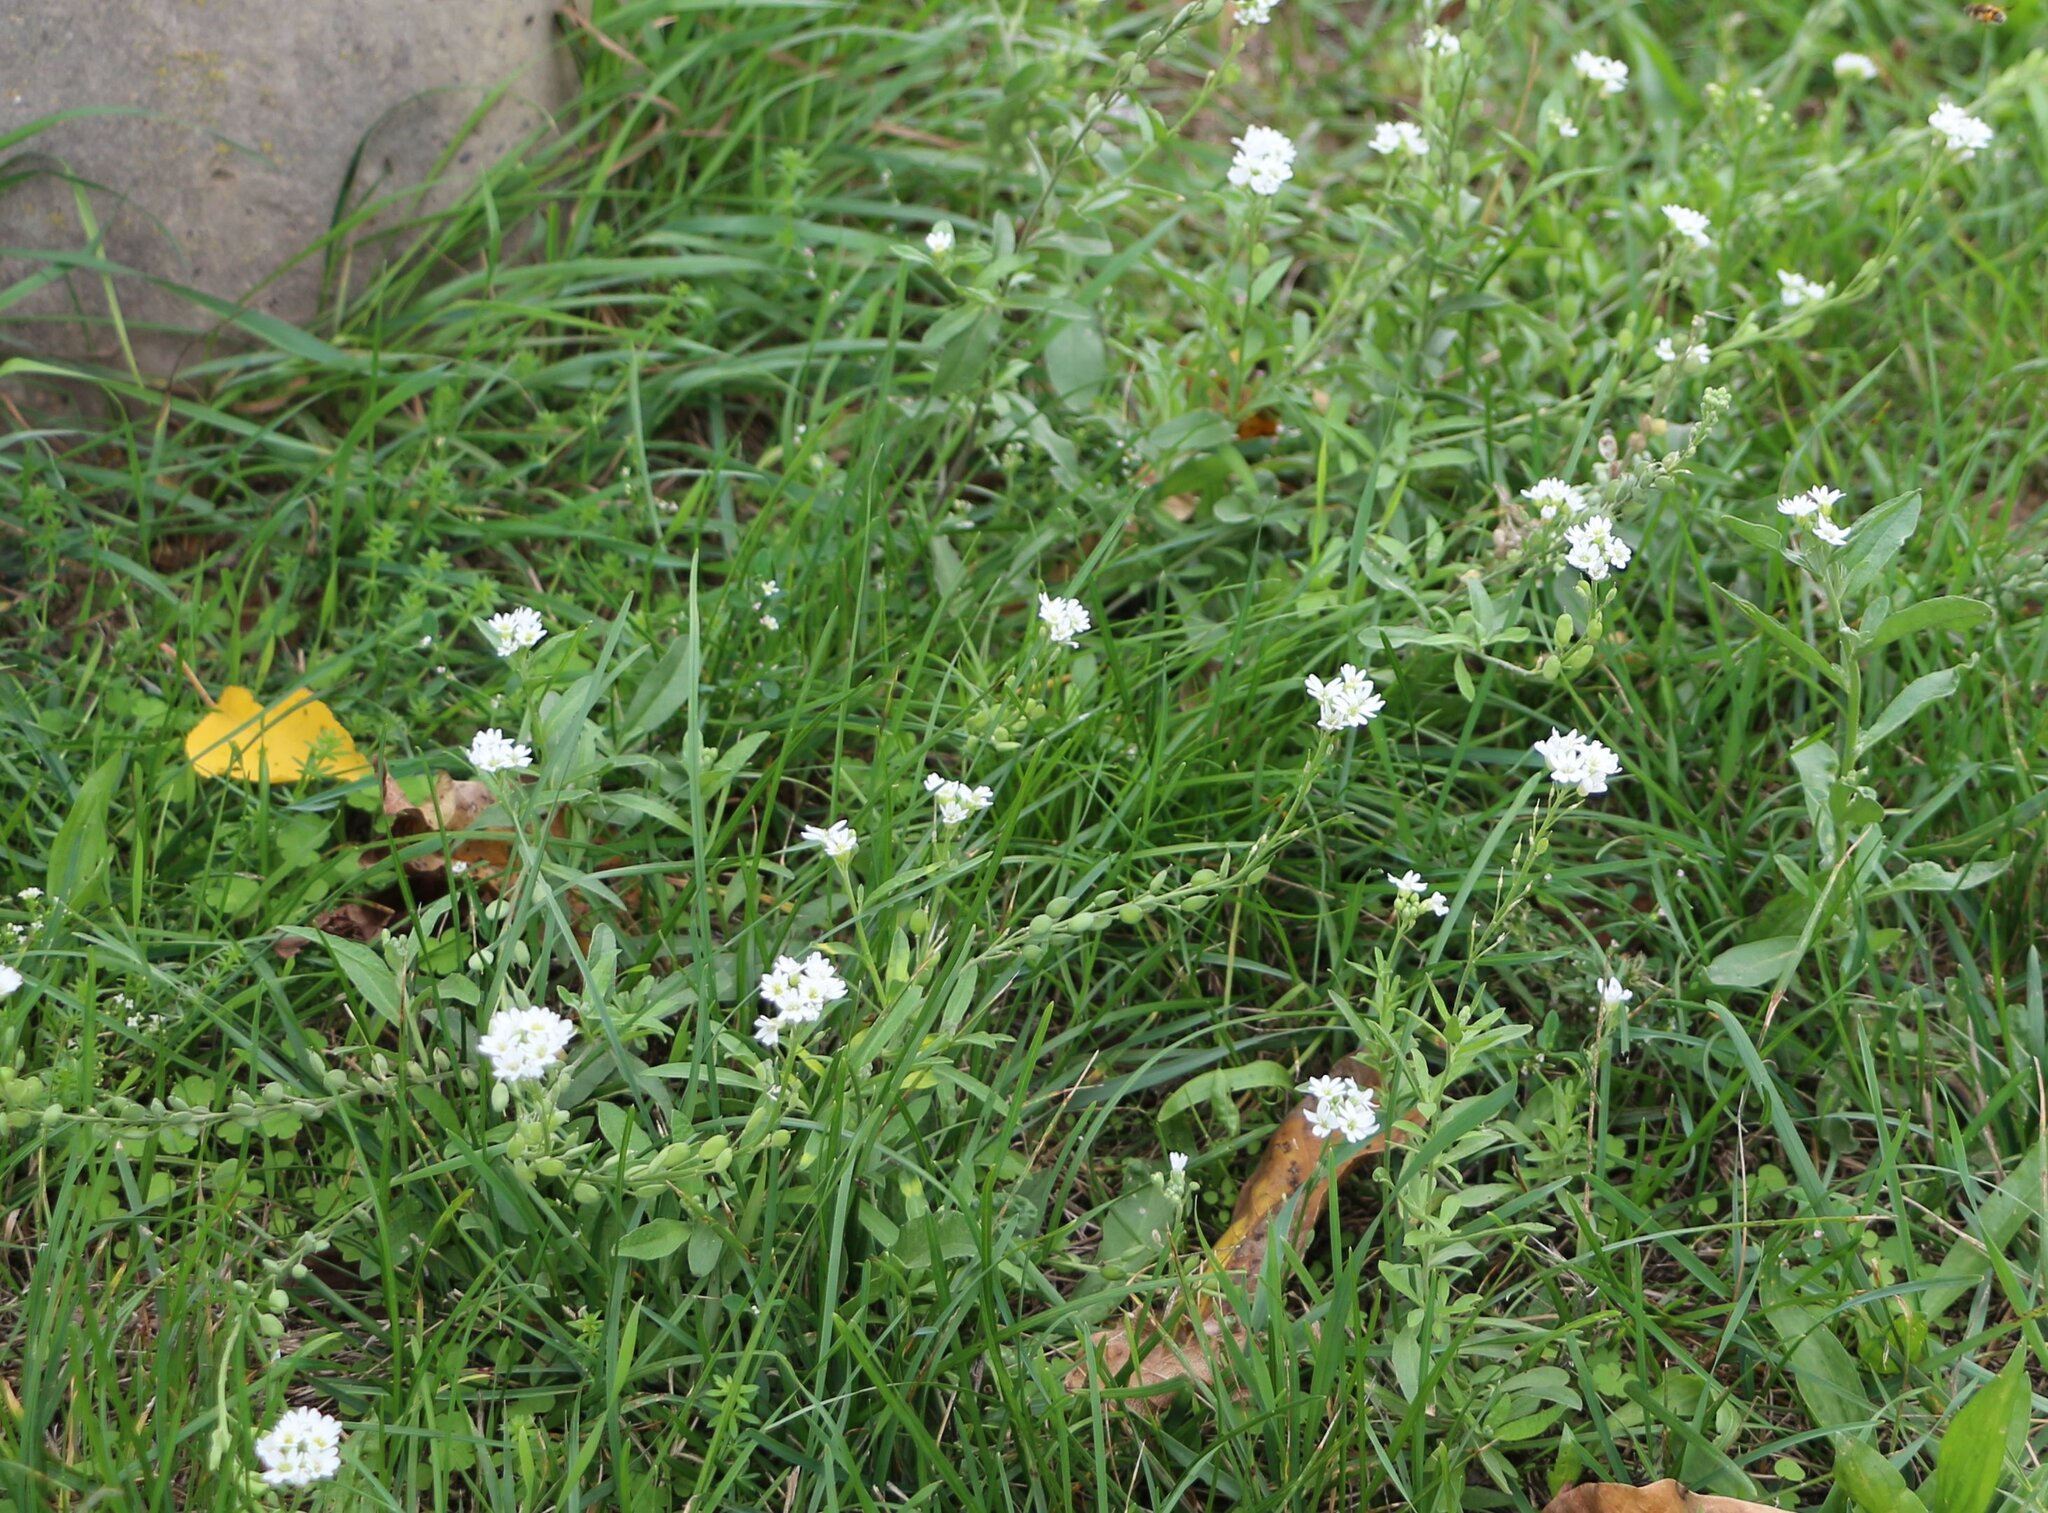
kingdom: Plantae
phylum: Tracheophyta
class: Magnoliopsida
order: Brassicales
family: Brassicaceae
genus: Berteroa
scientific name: Berteroa incana
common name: Hoary alison
